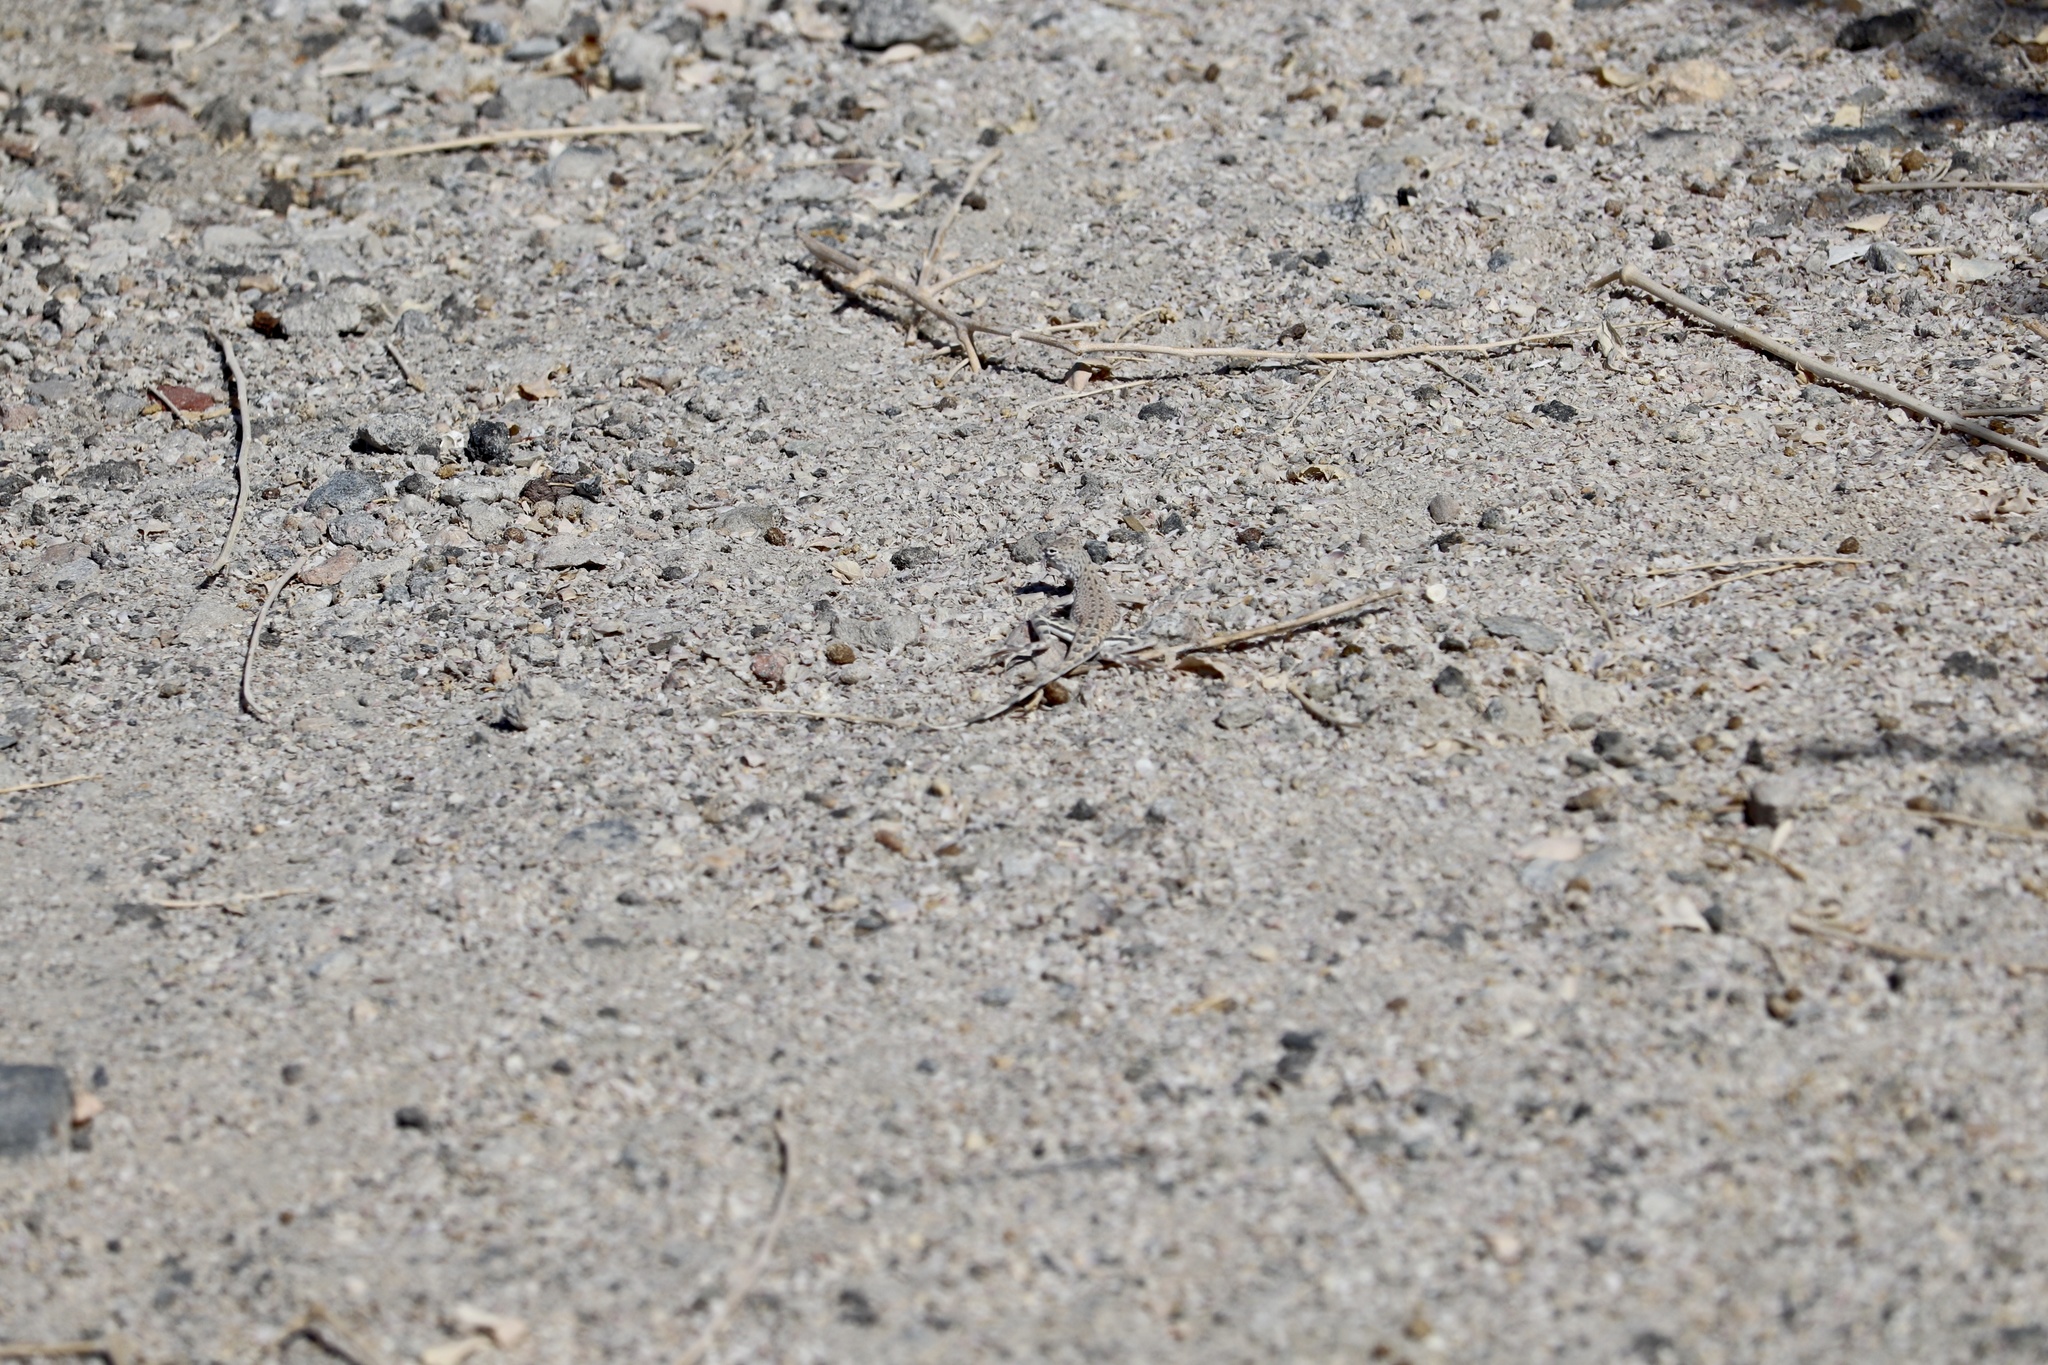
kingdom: Animalia
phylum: Chordata
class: Squamata
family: Phrynosomatidae
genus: Callisaurus
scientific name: Callisaurus draconoides
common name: Zebra-tailed lizard
